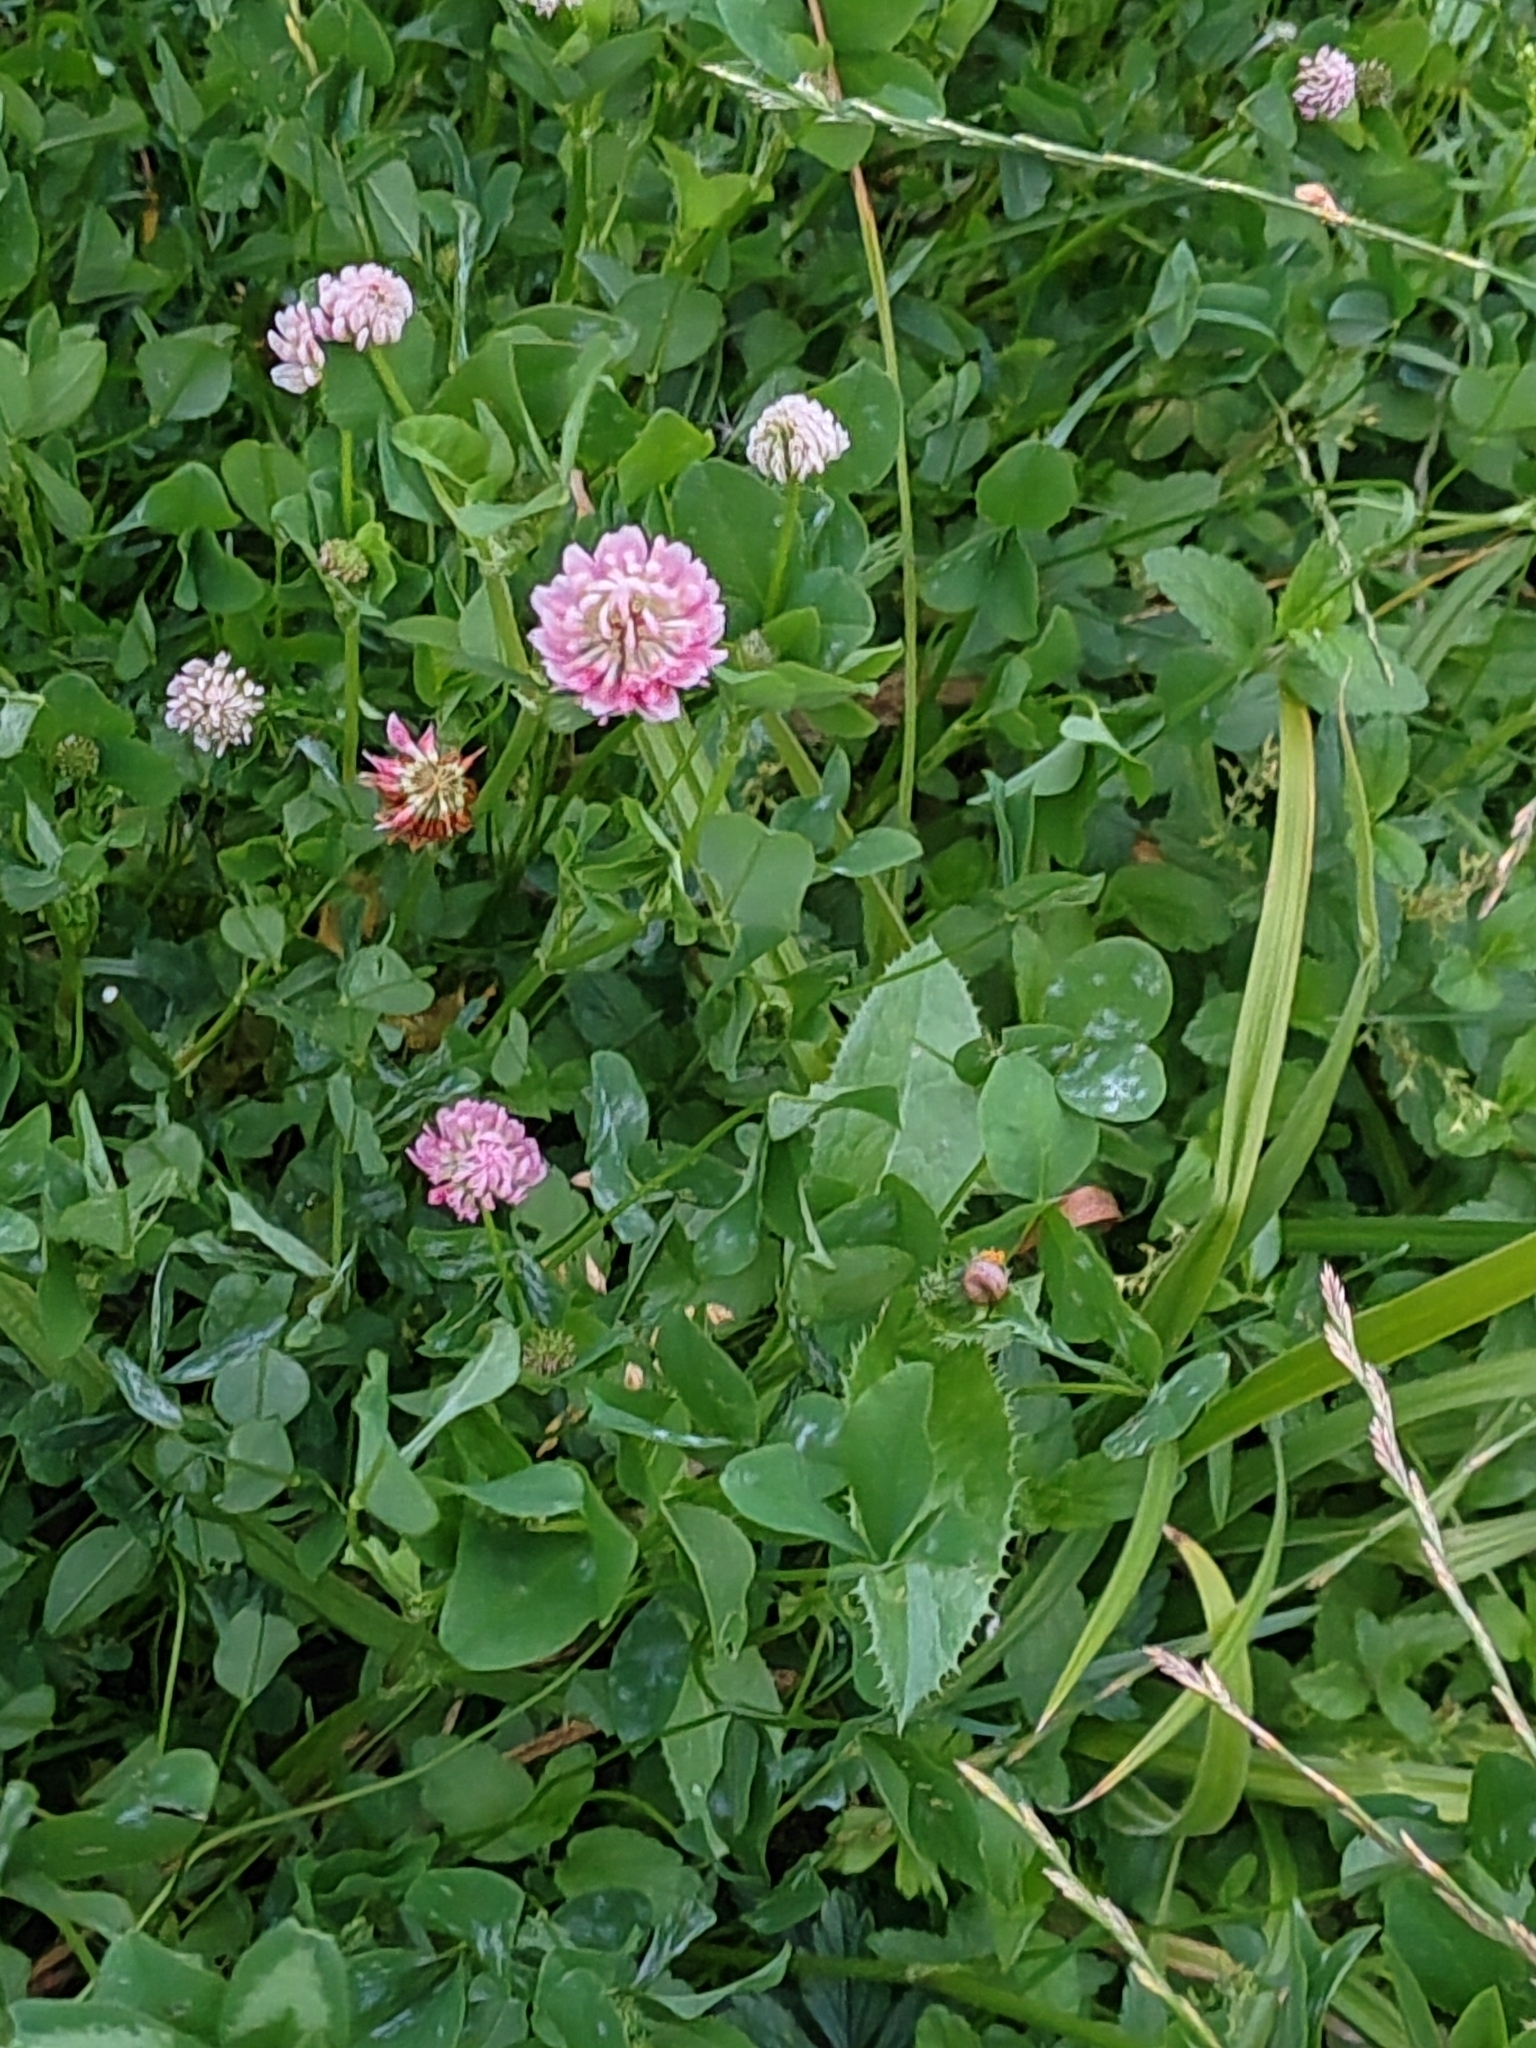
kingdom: Plantae
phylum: Tracheophyta
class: Magnoliopsida
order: Fabales
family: Fabaceae
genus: Trifolium
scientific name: Trifolium hybridum
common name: Alsike clover
